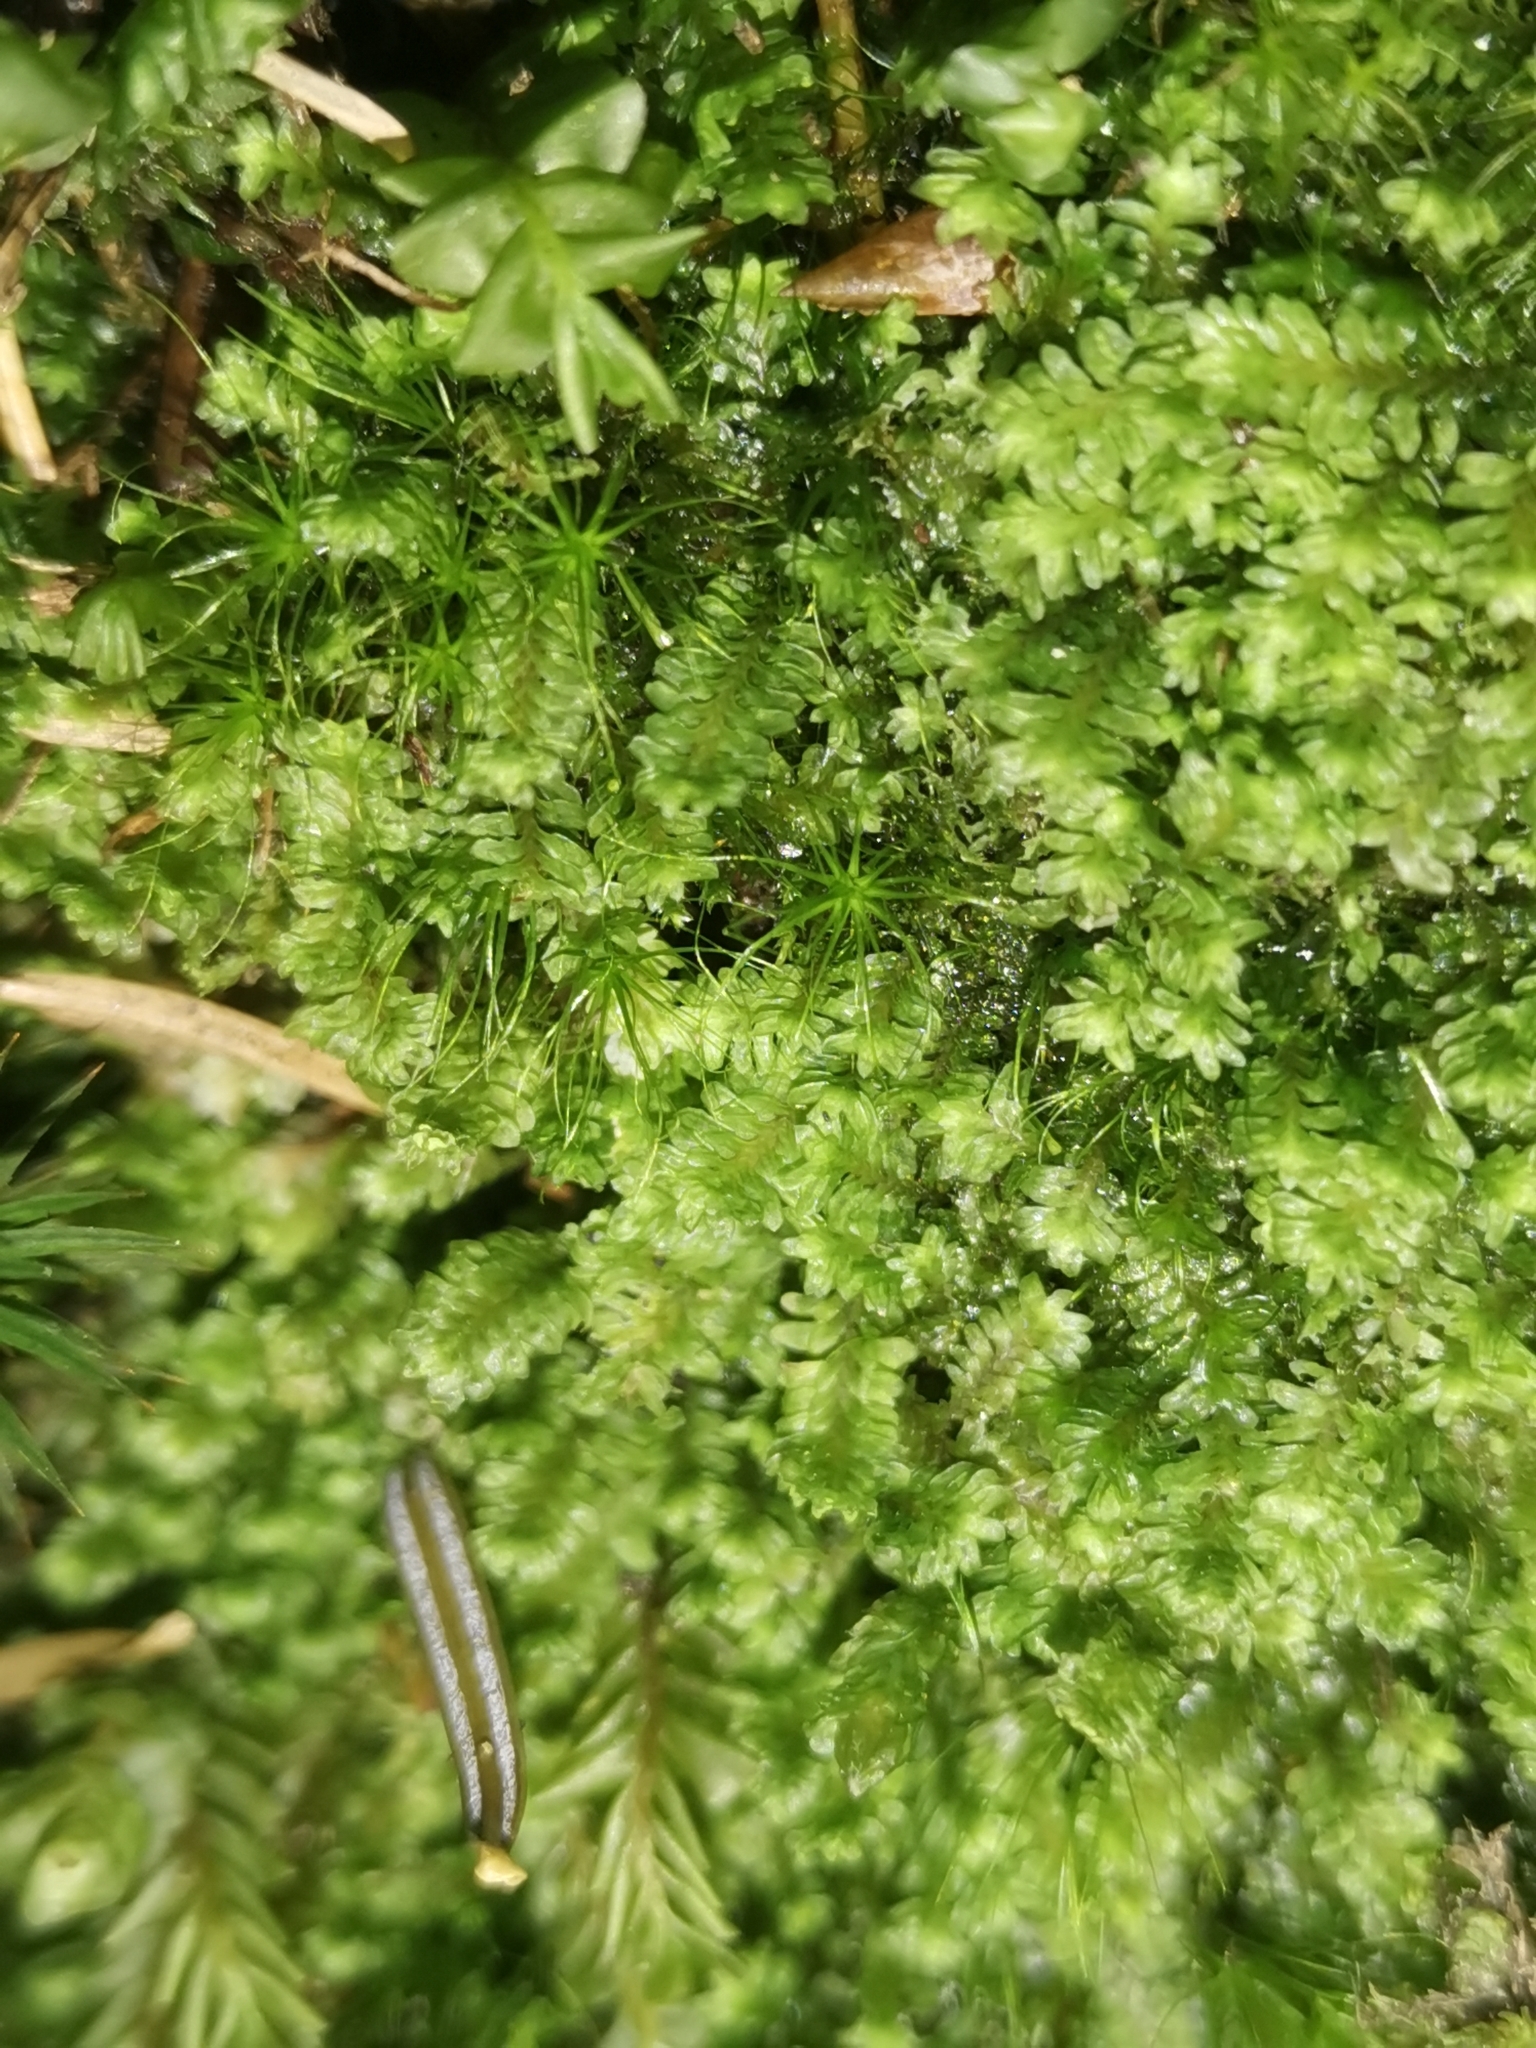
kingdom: Plantae
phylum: Marchantiophyta
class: Jungermanniopsida
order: Jungermanniales
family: Scapaniaceae
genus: Diplophyllum
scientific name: Diplophyllum albicans
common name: White earwort
